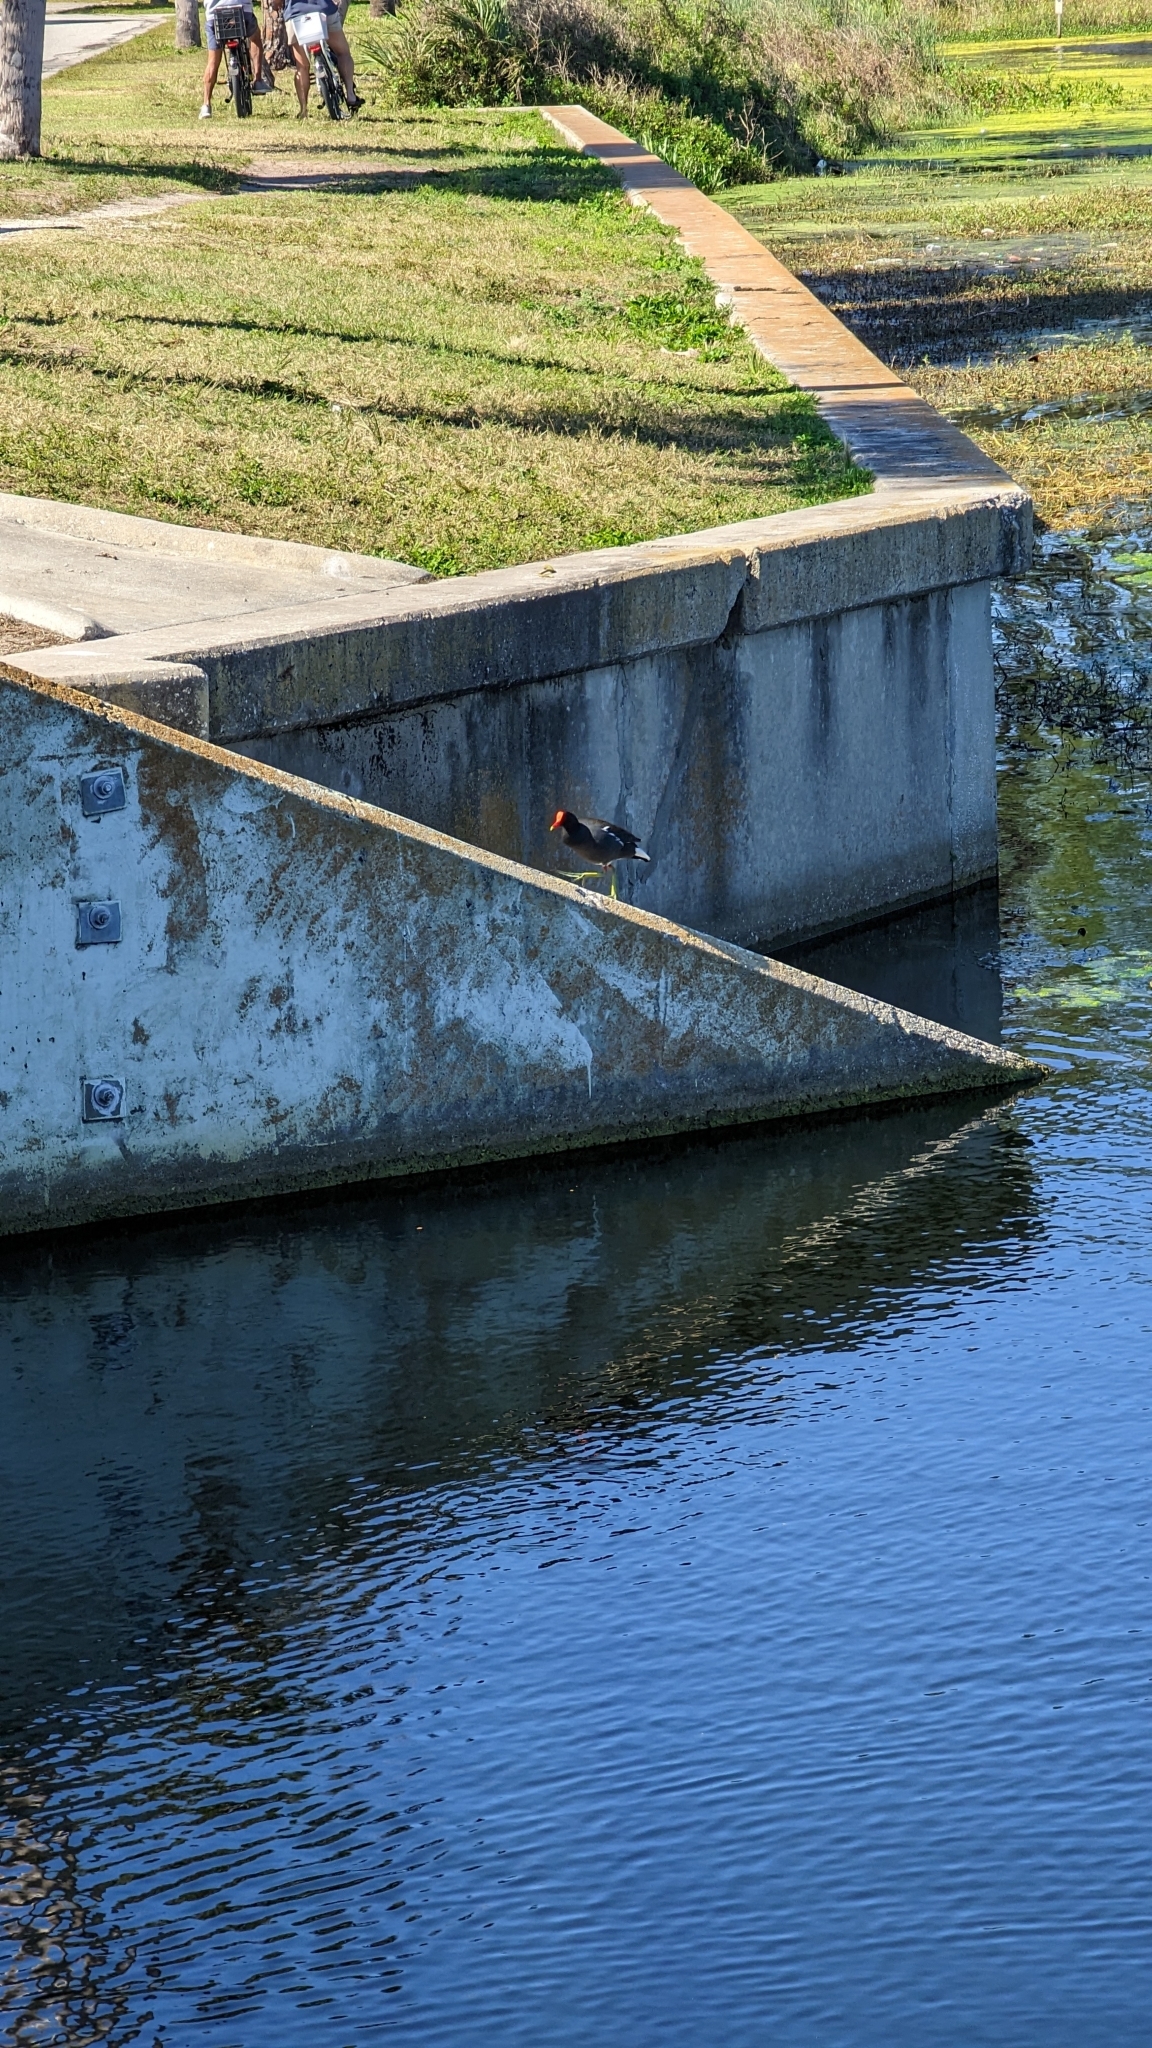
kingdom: Animalia
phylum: Chordata
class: Aves
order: Gruiformes
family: Rallidae
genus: Gallinula
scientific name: Gallinula chloropus
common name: Common moorhen
